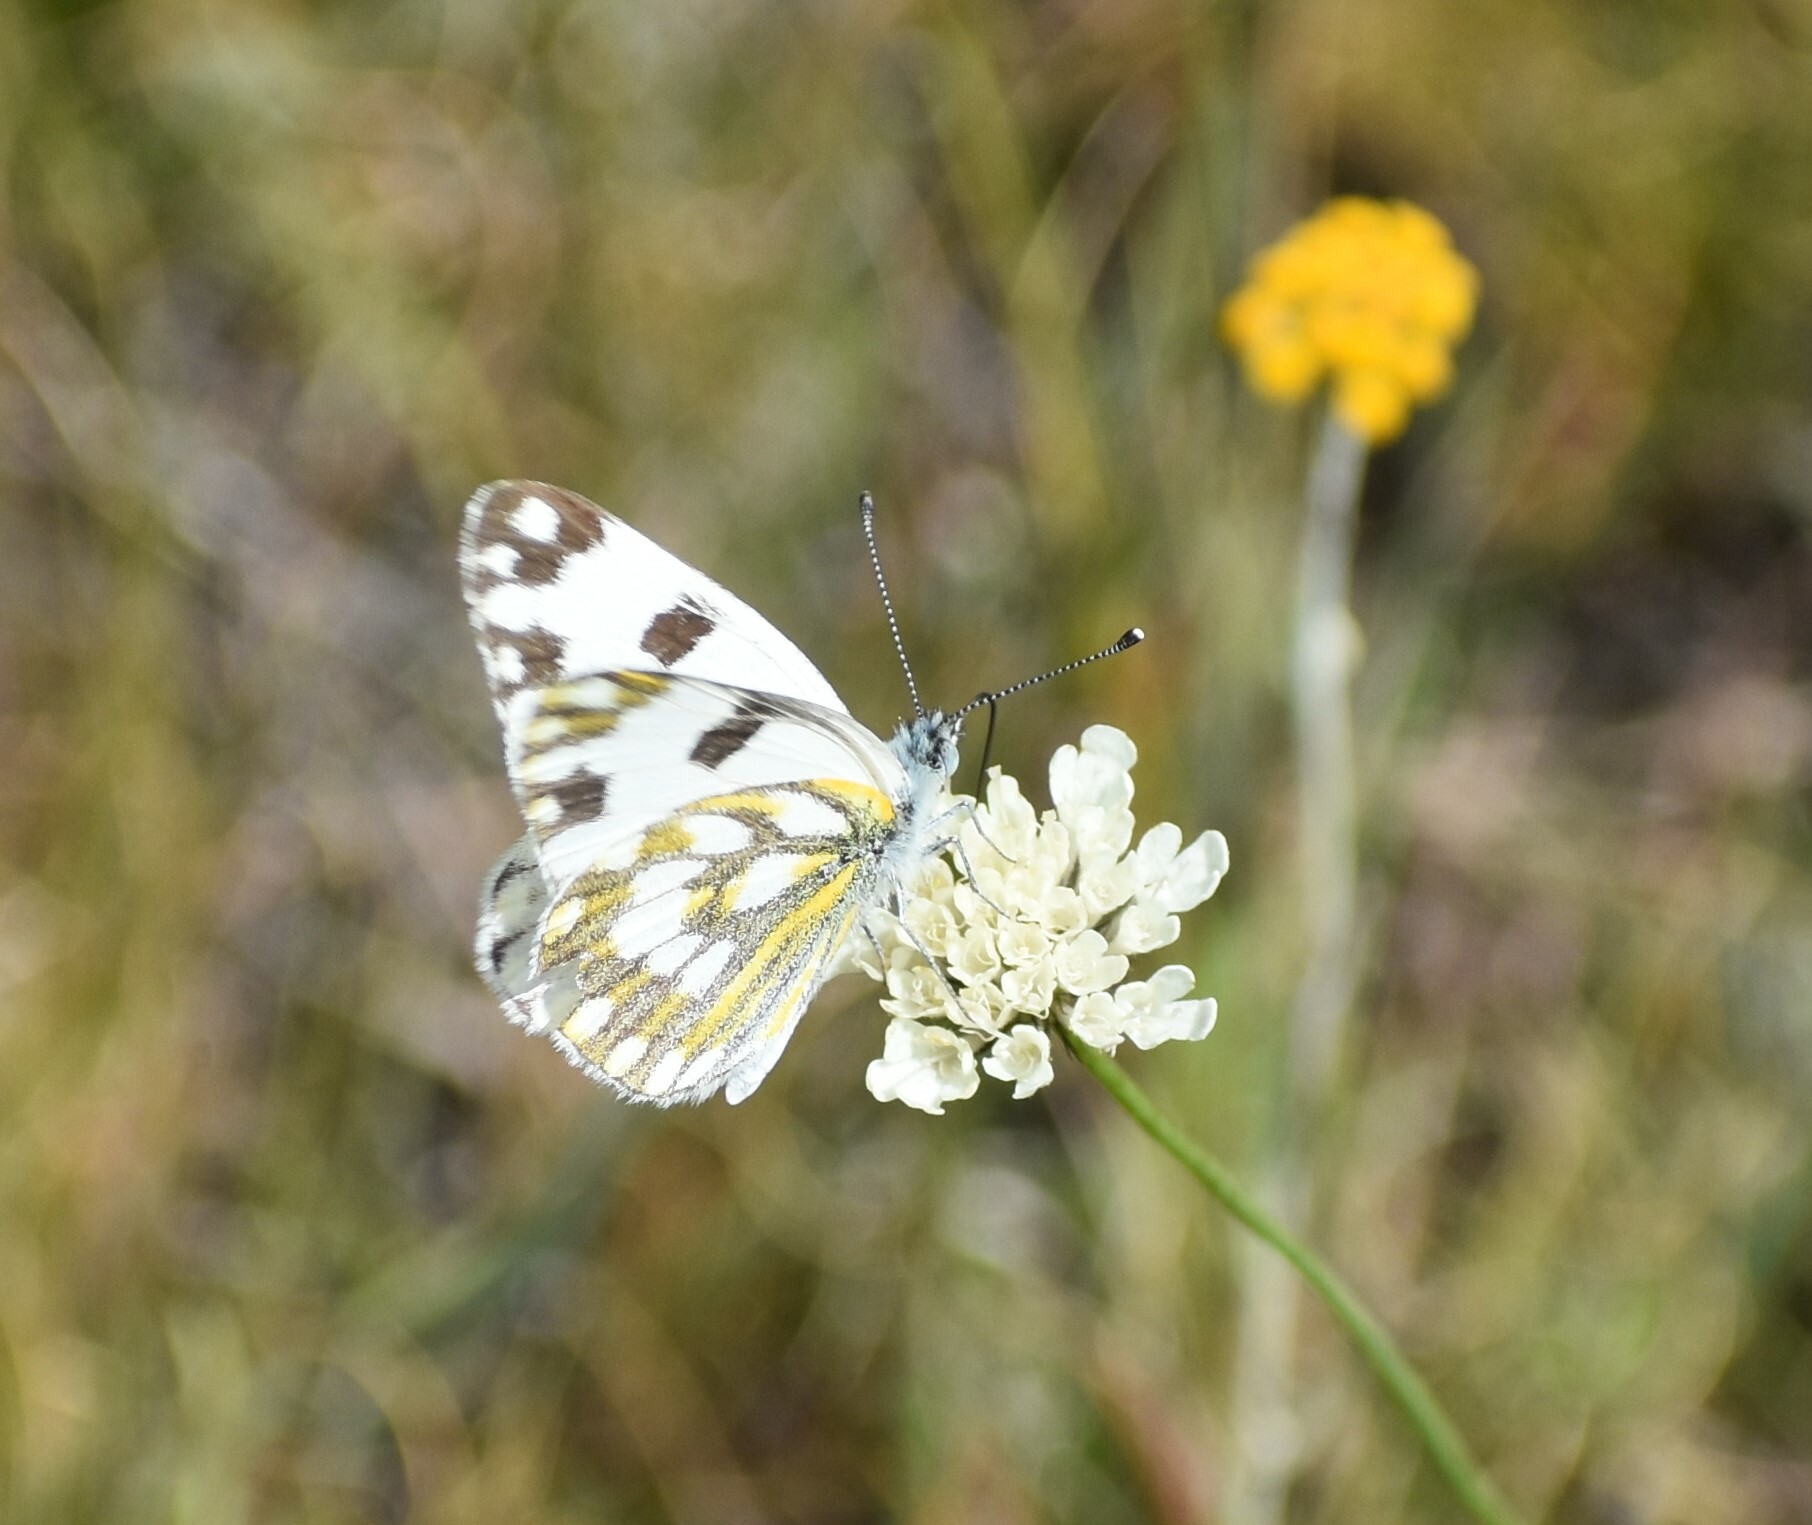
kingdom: Animalia
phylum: Arthropoda
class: Insecta
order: Lepidoptera
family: Pieridae
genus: Pontia
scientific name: Pontia helice
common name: Meadow white
